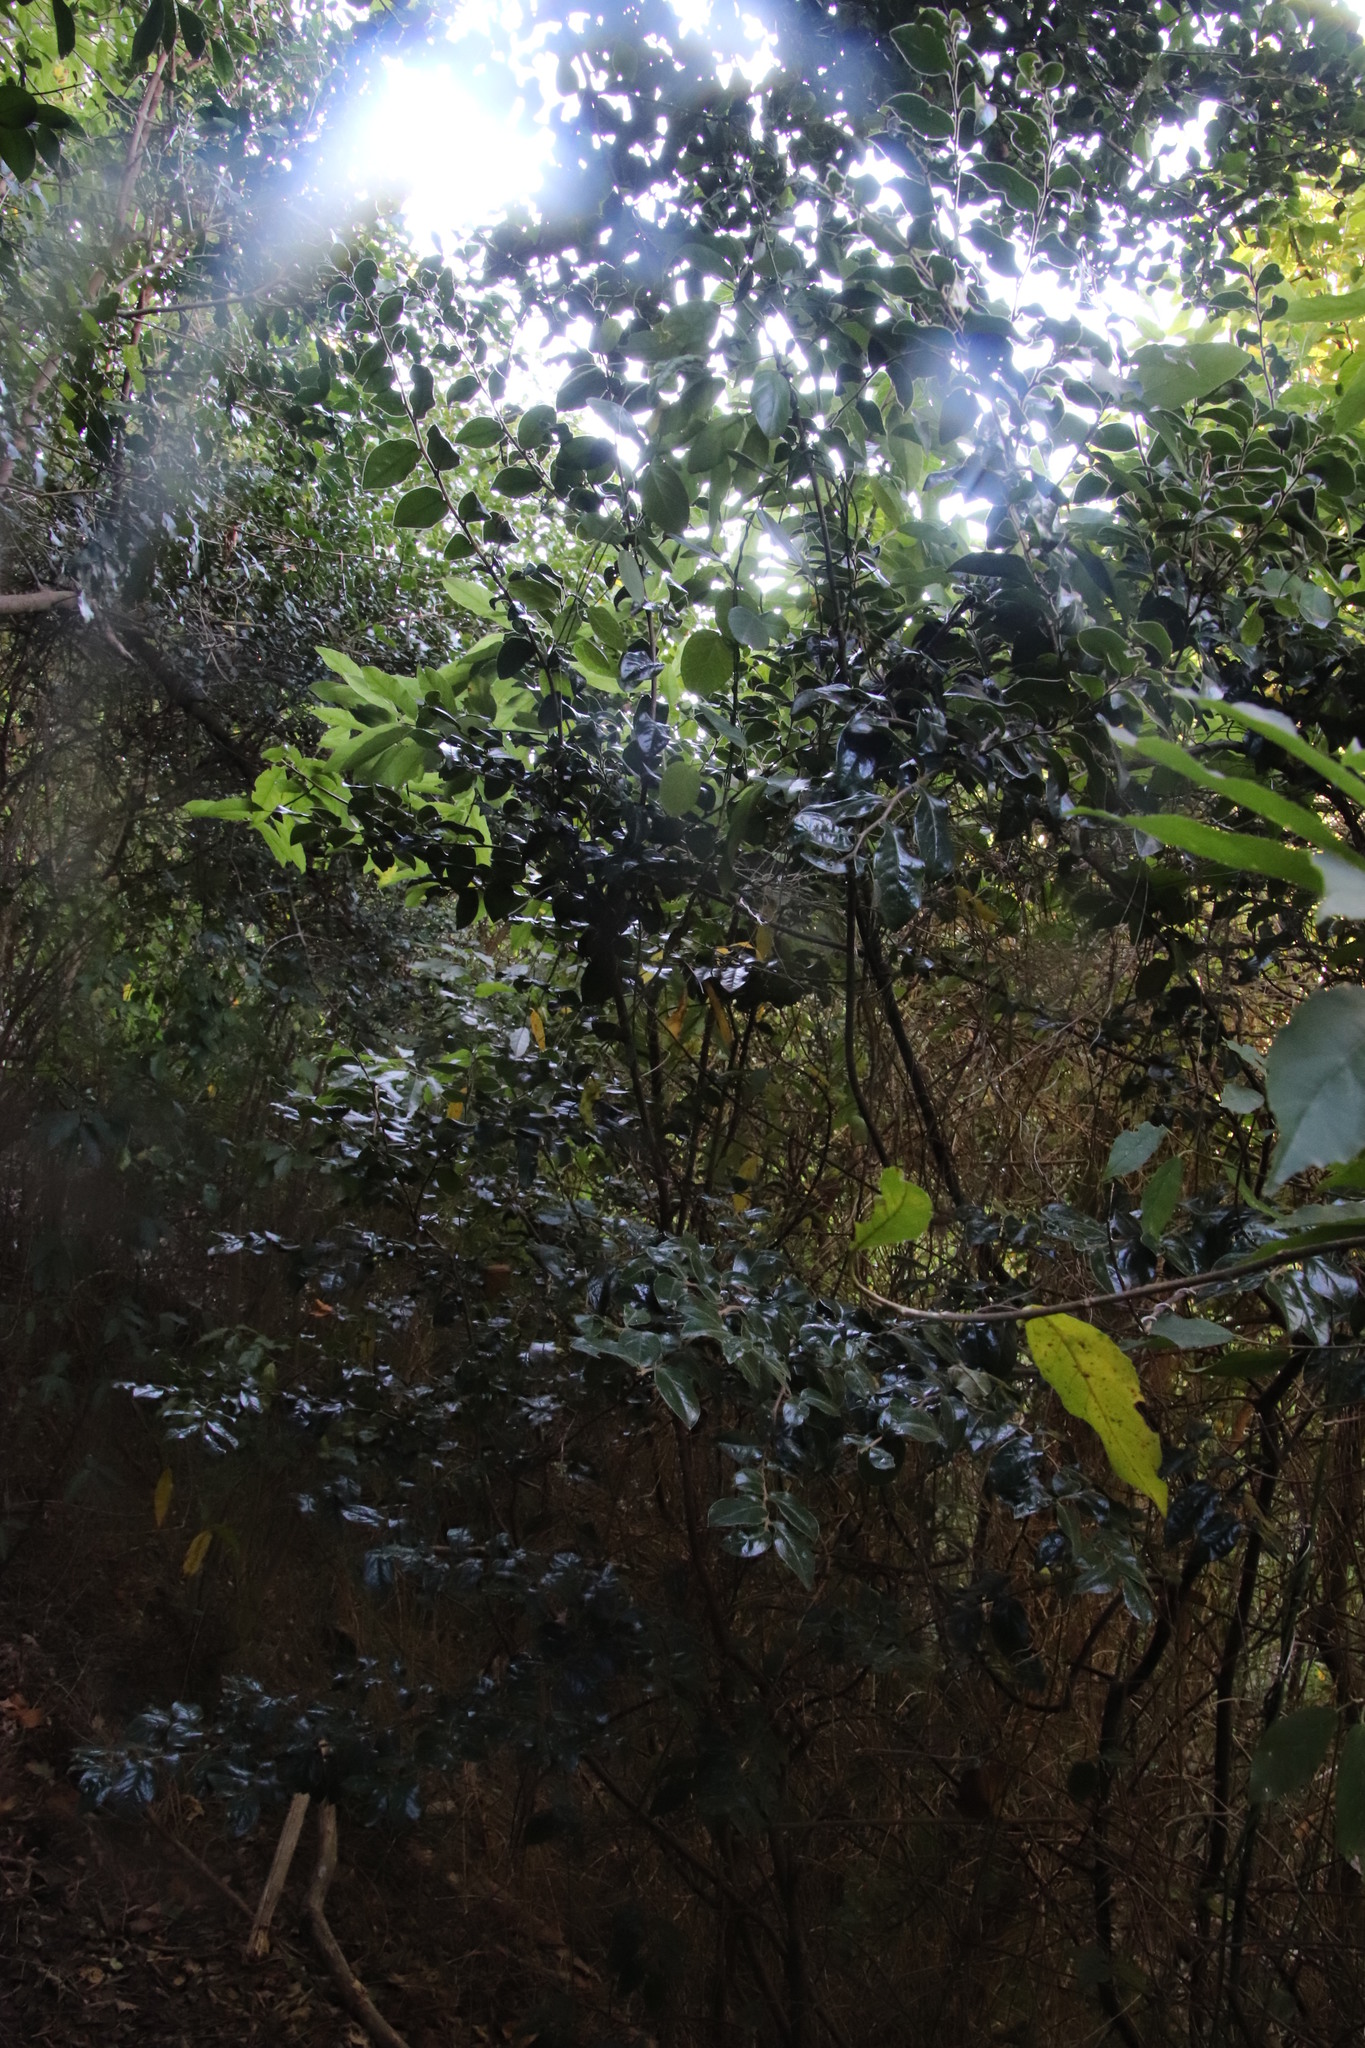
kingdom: Plantae
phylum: Tracheophyta
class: Magnoliopsida
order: Ericales
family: Ebenaceae
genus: Diospyros
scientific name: Diospyros whyteana
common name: Bladder-nut
